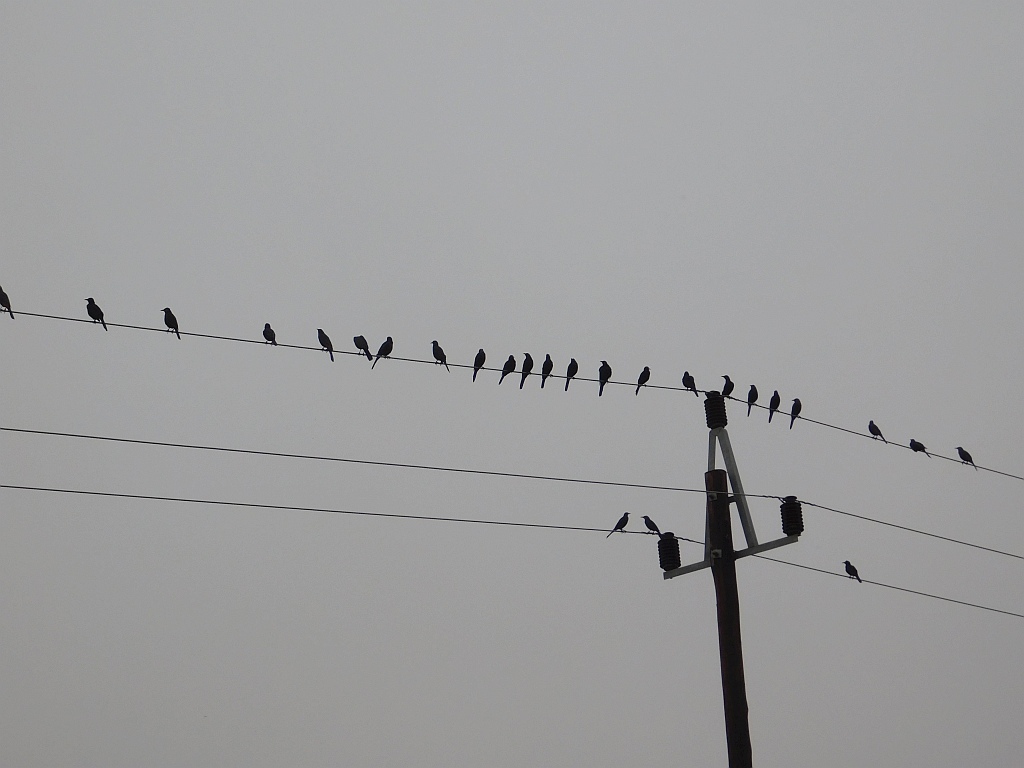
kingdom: Animalia
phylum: Chordata
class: Aves
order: Passeriformes
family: Sturnidae
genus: Onychognathus
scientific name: Onychognathus morio
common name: Red-winged starling
